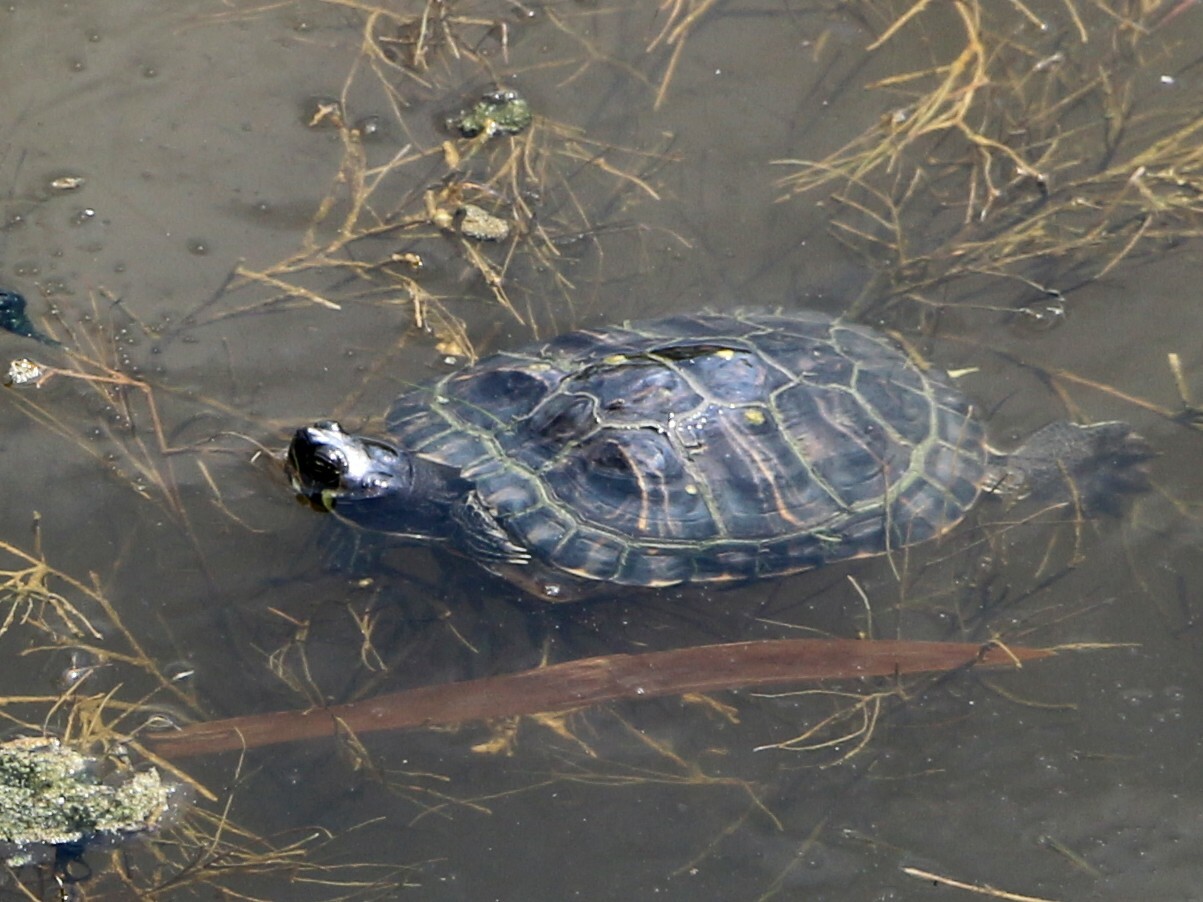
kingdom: Animalia
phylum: Chordata
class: Testudines
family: Emydidae
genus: Trachemys
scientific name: Trachemys scripta
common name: Slider
